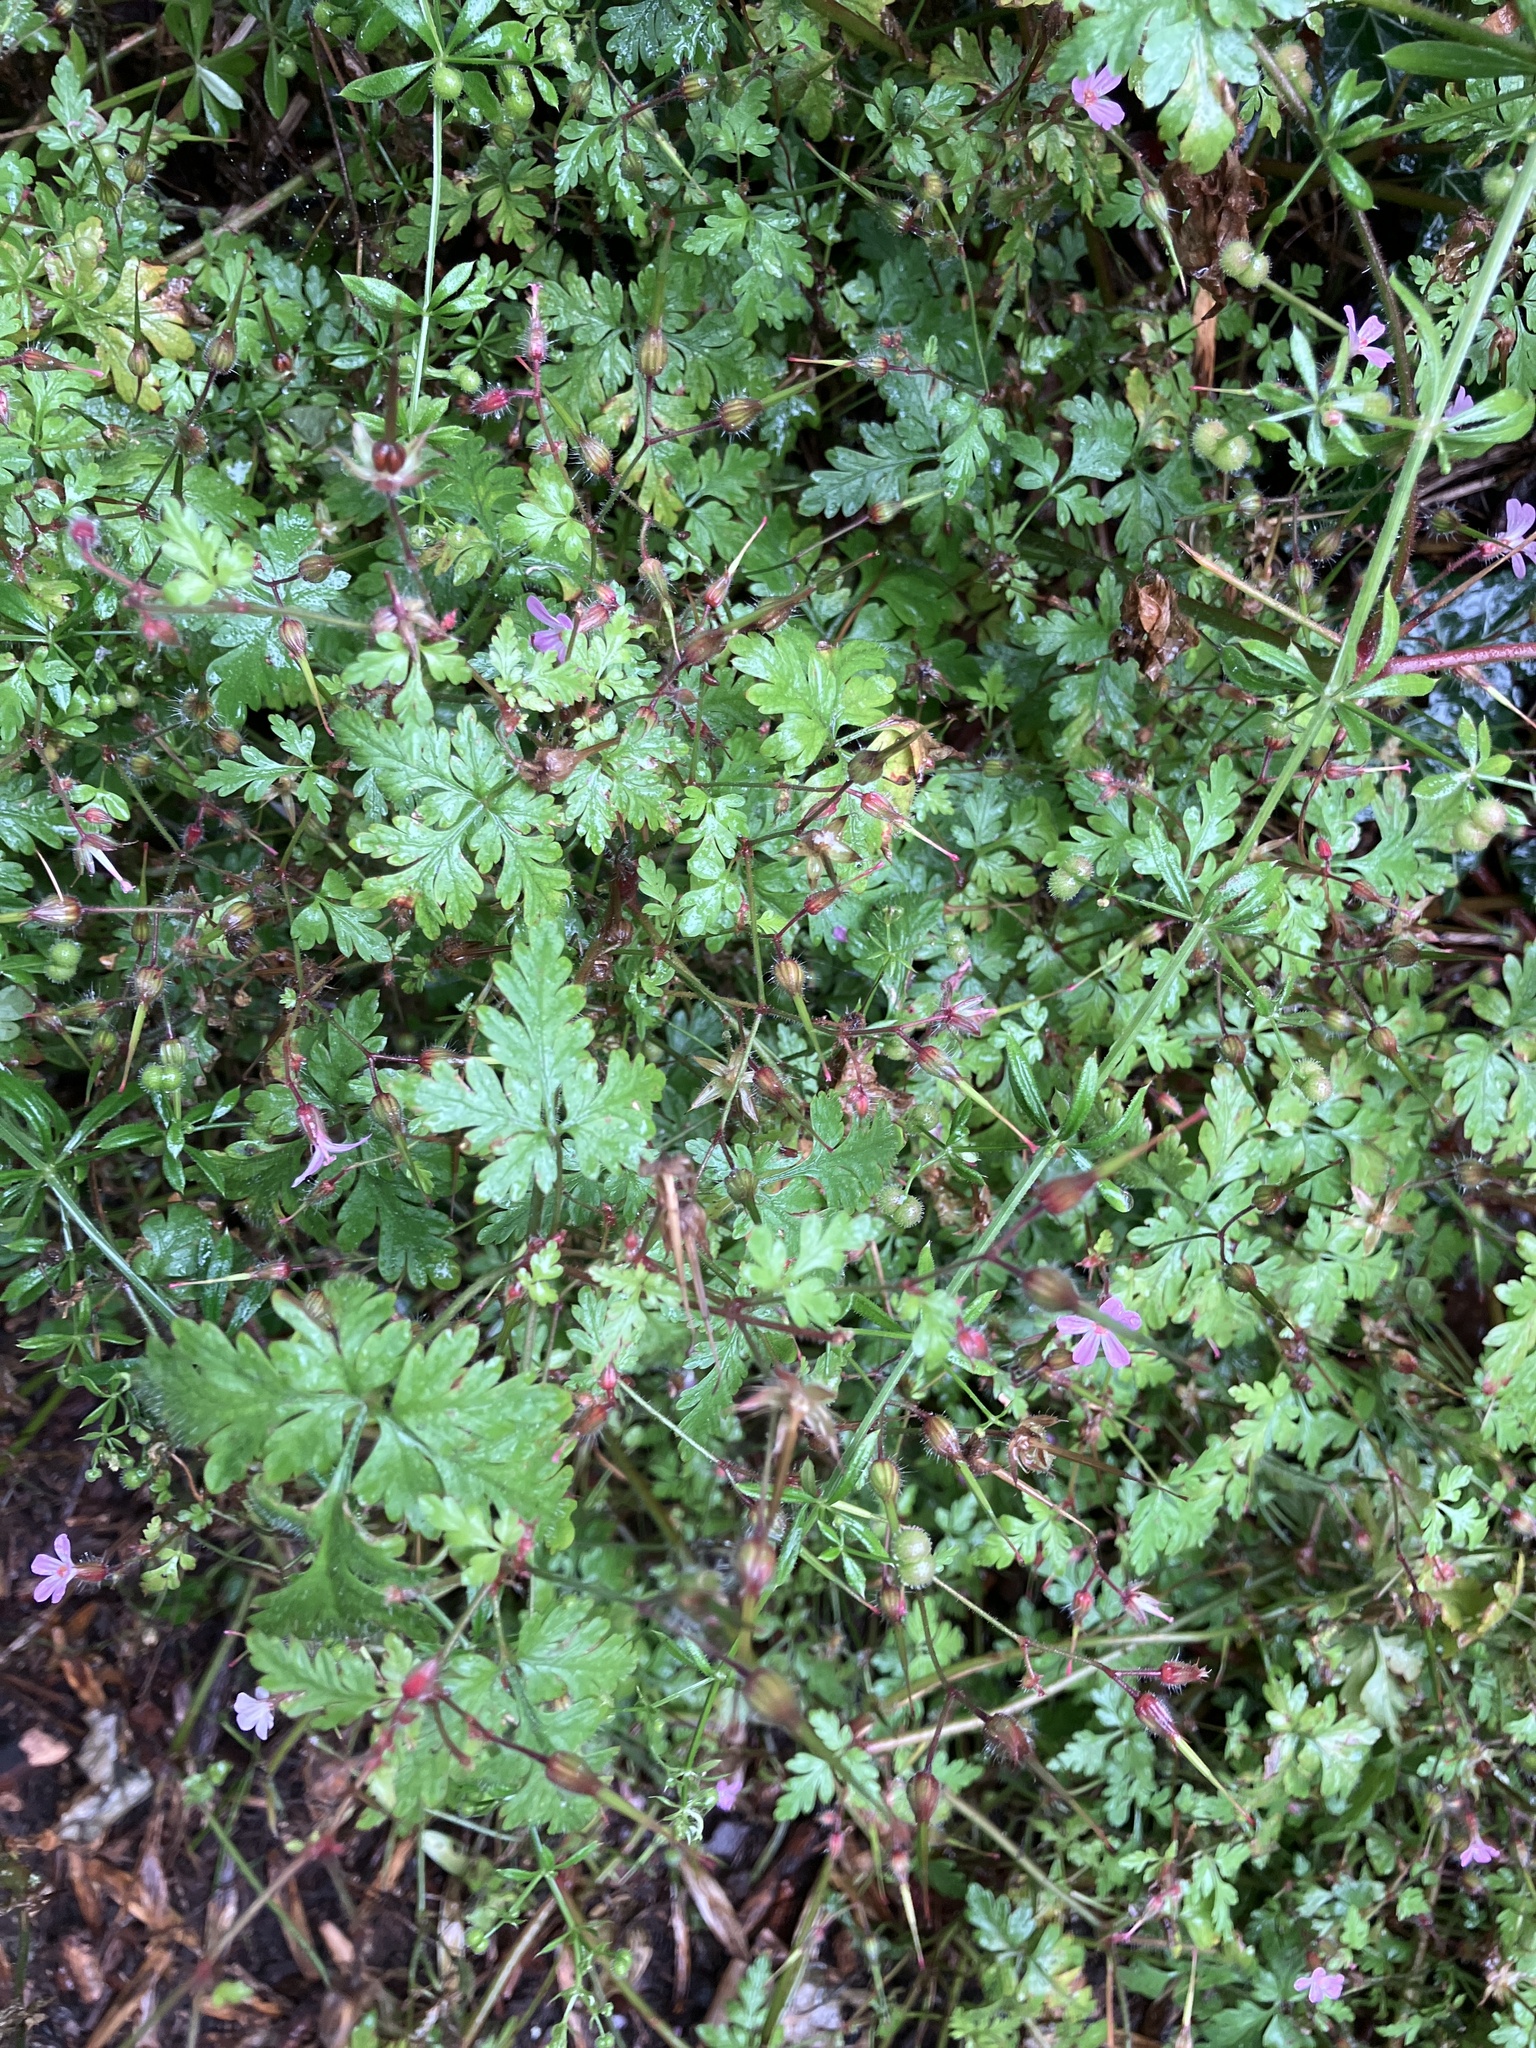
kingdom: Plantae
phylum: Tracheophyta
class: Magnoliopsida
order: Geraniales
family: Geraniaceae
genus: Geranium
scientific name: Geranium purpureum
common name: Little-robin
